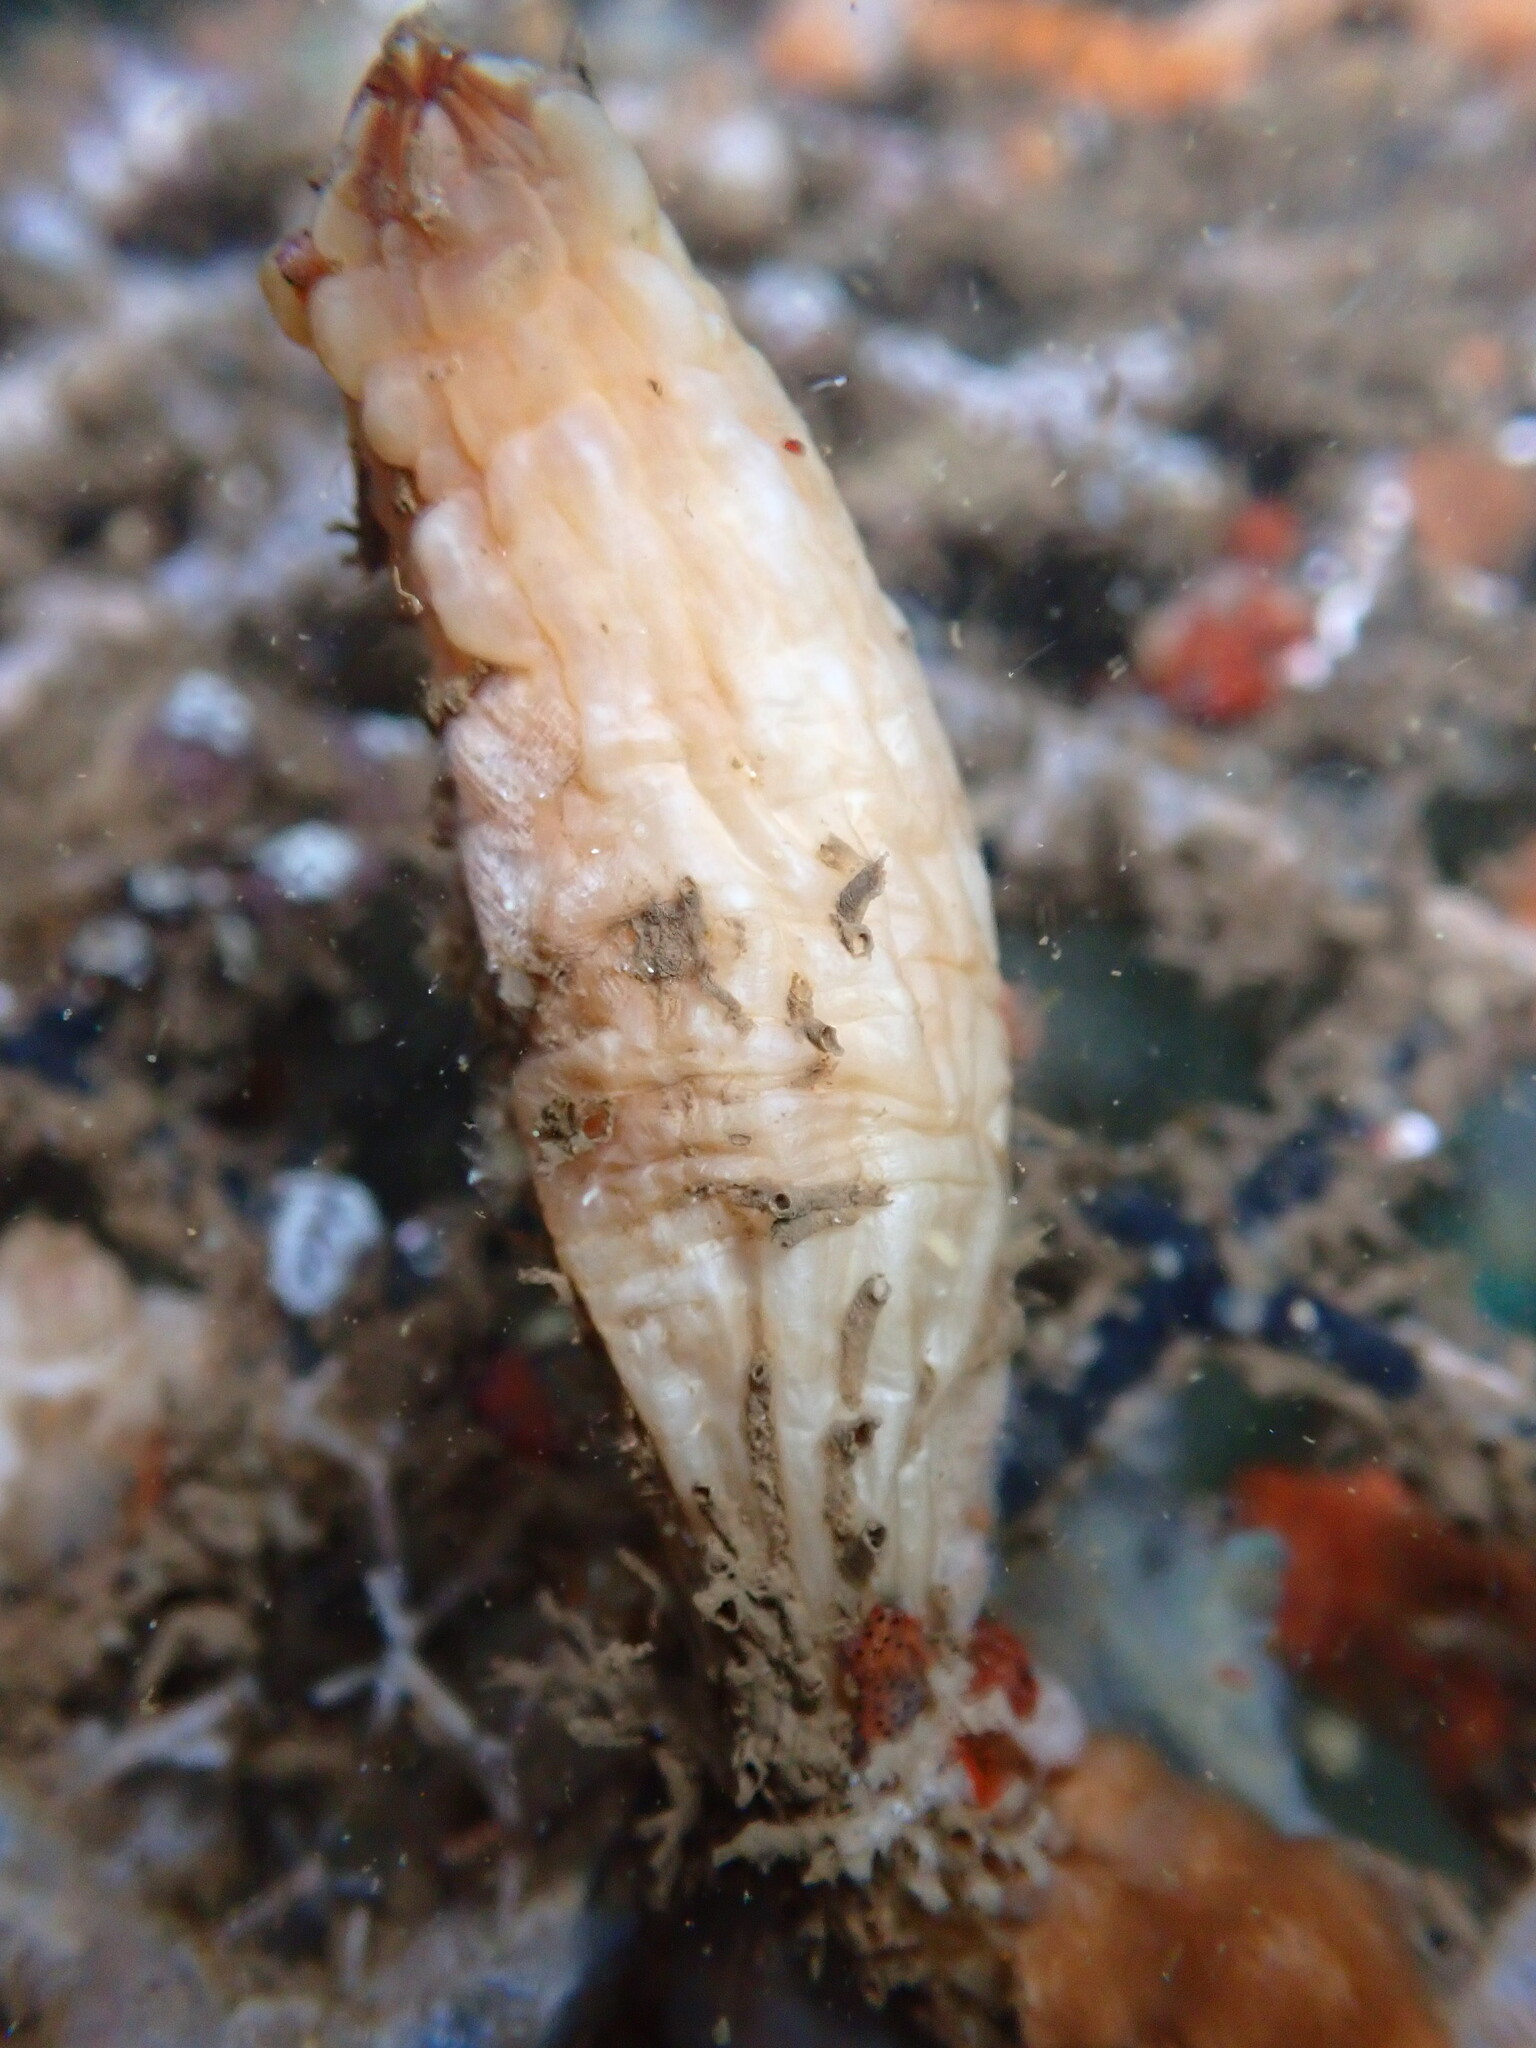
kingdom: Animalia
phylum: Chordata
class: Ascidiacea
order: Stolidobranchia
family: Styelidae
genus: Styela
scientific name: Styela clava
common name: Leathery sea squirt
